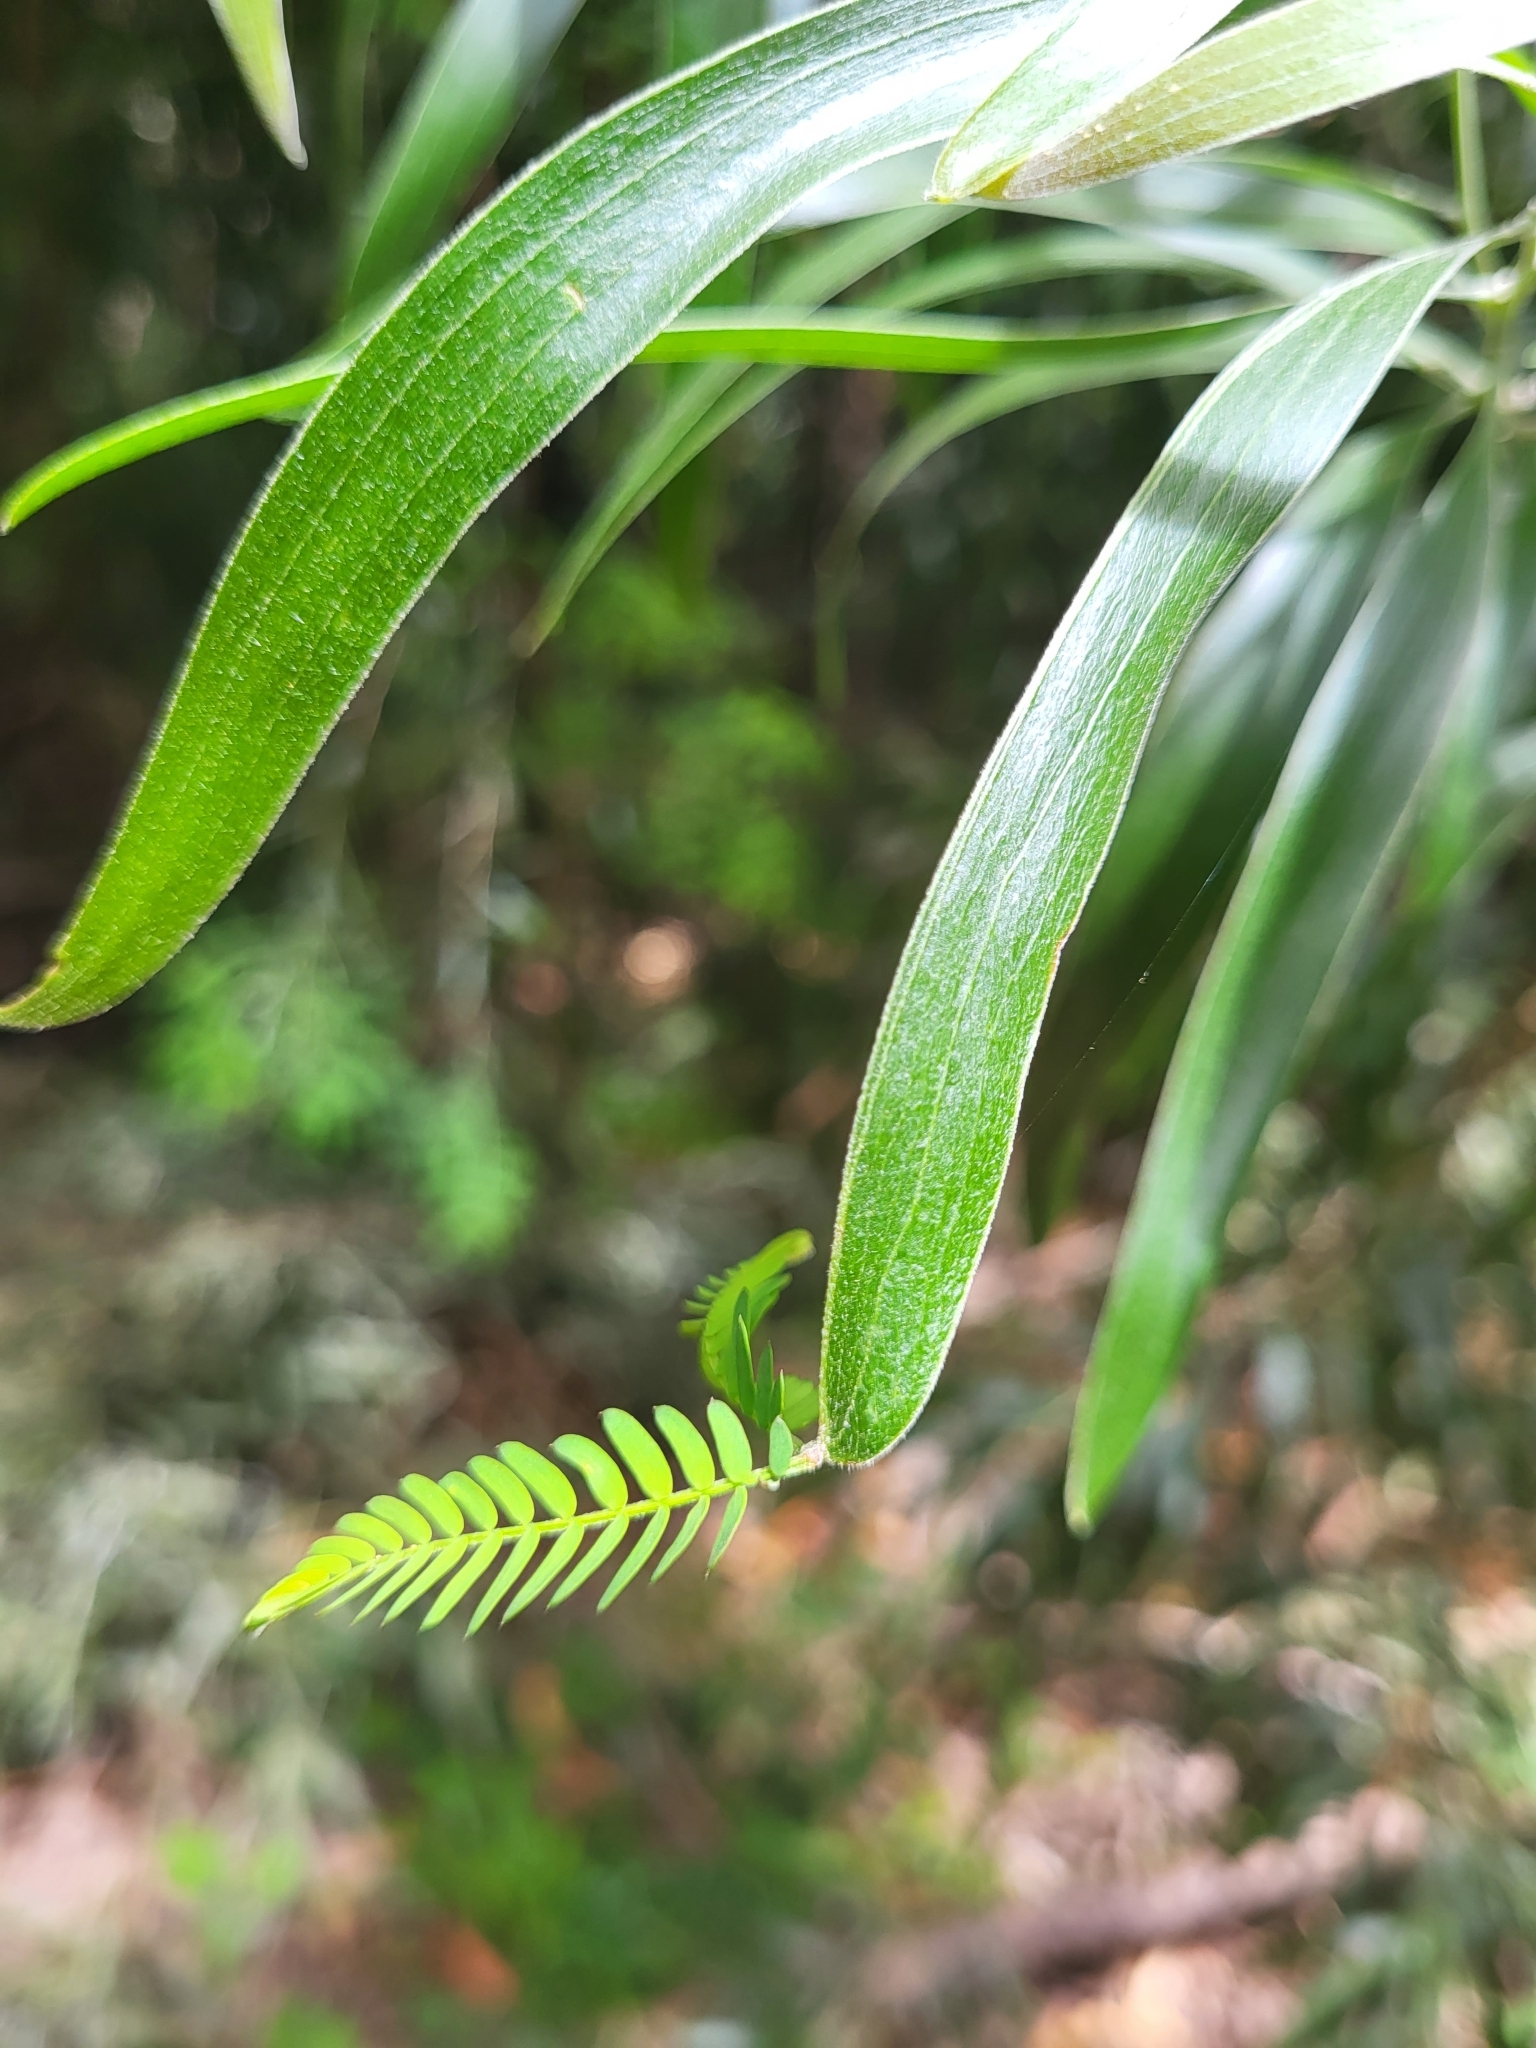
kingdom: Plantae
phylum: Tracheophyta
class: Magnoliopsida
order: Fabales
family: Fabaceae
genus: Acacia
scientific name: Acacia melanoxylon
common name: Blackwood
